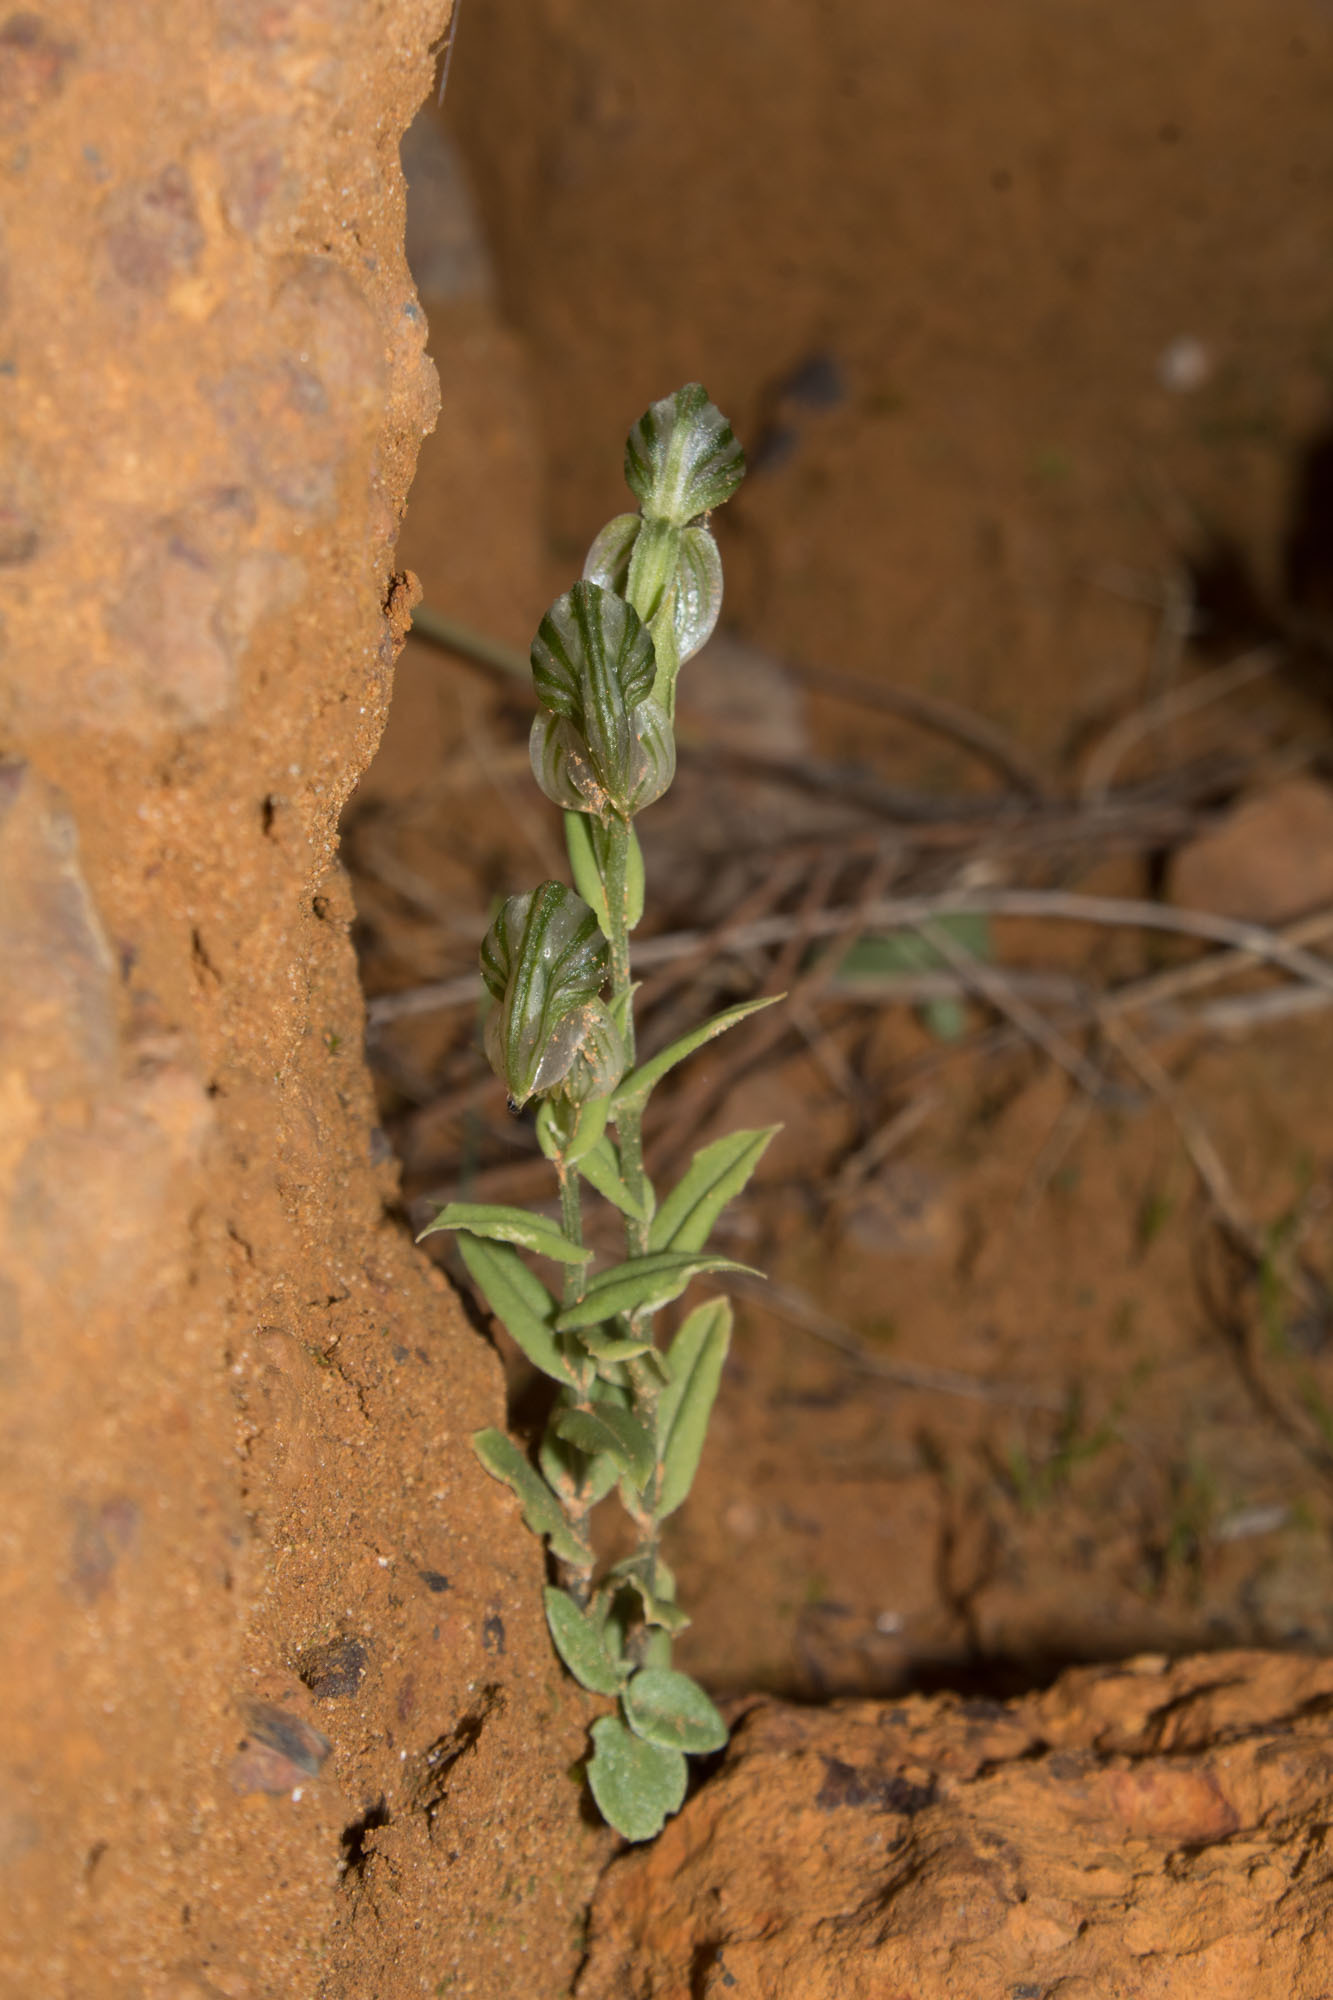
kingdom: Plantae
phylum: Tracheophyta
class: Liliopsida
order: Asparagales
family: Orchidaceae
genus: Pterostylis
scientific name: Pterostylis vittata
